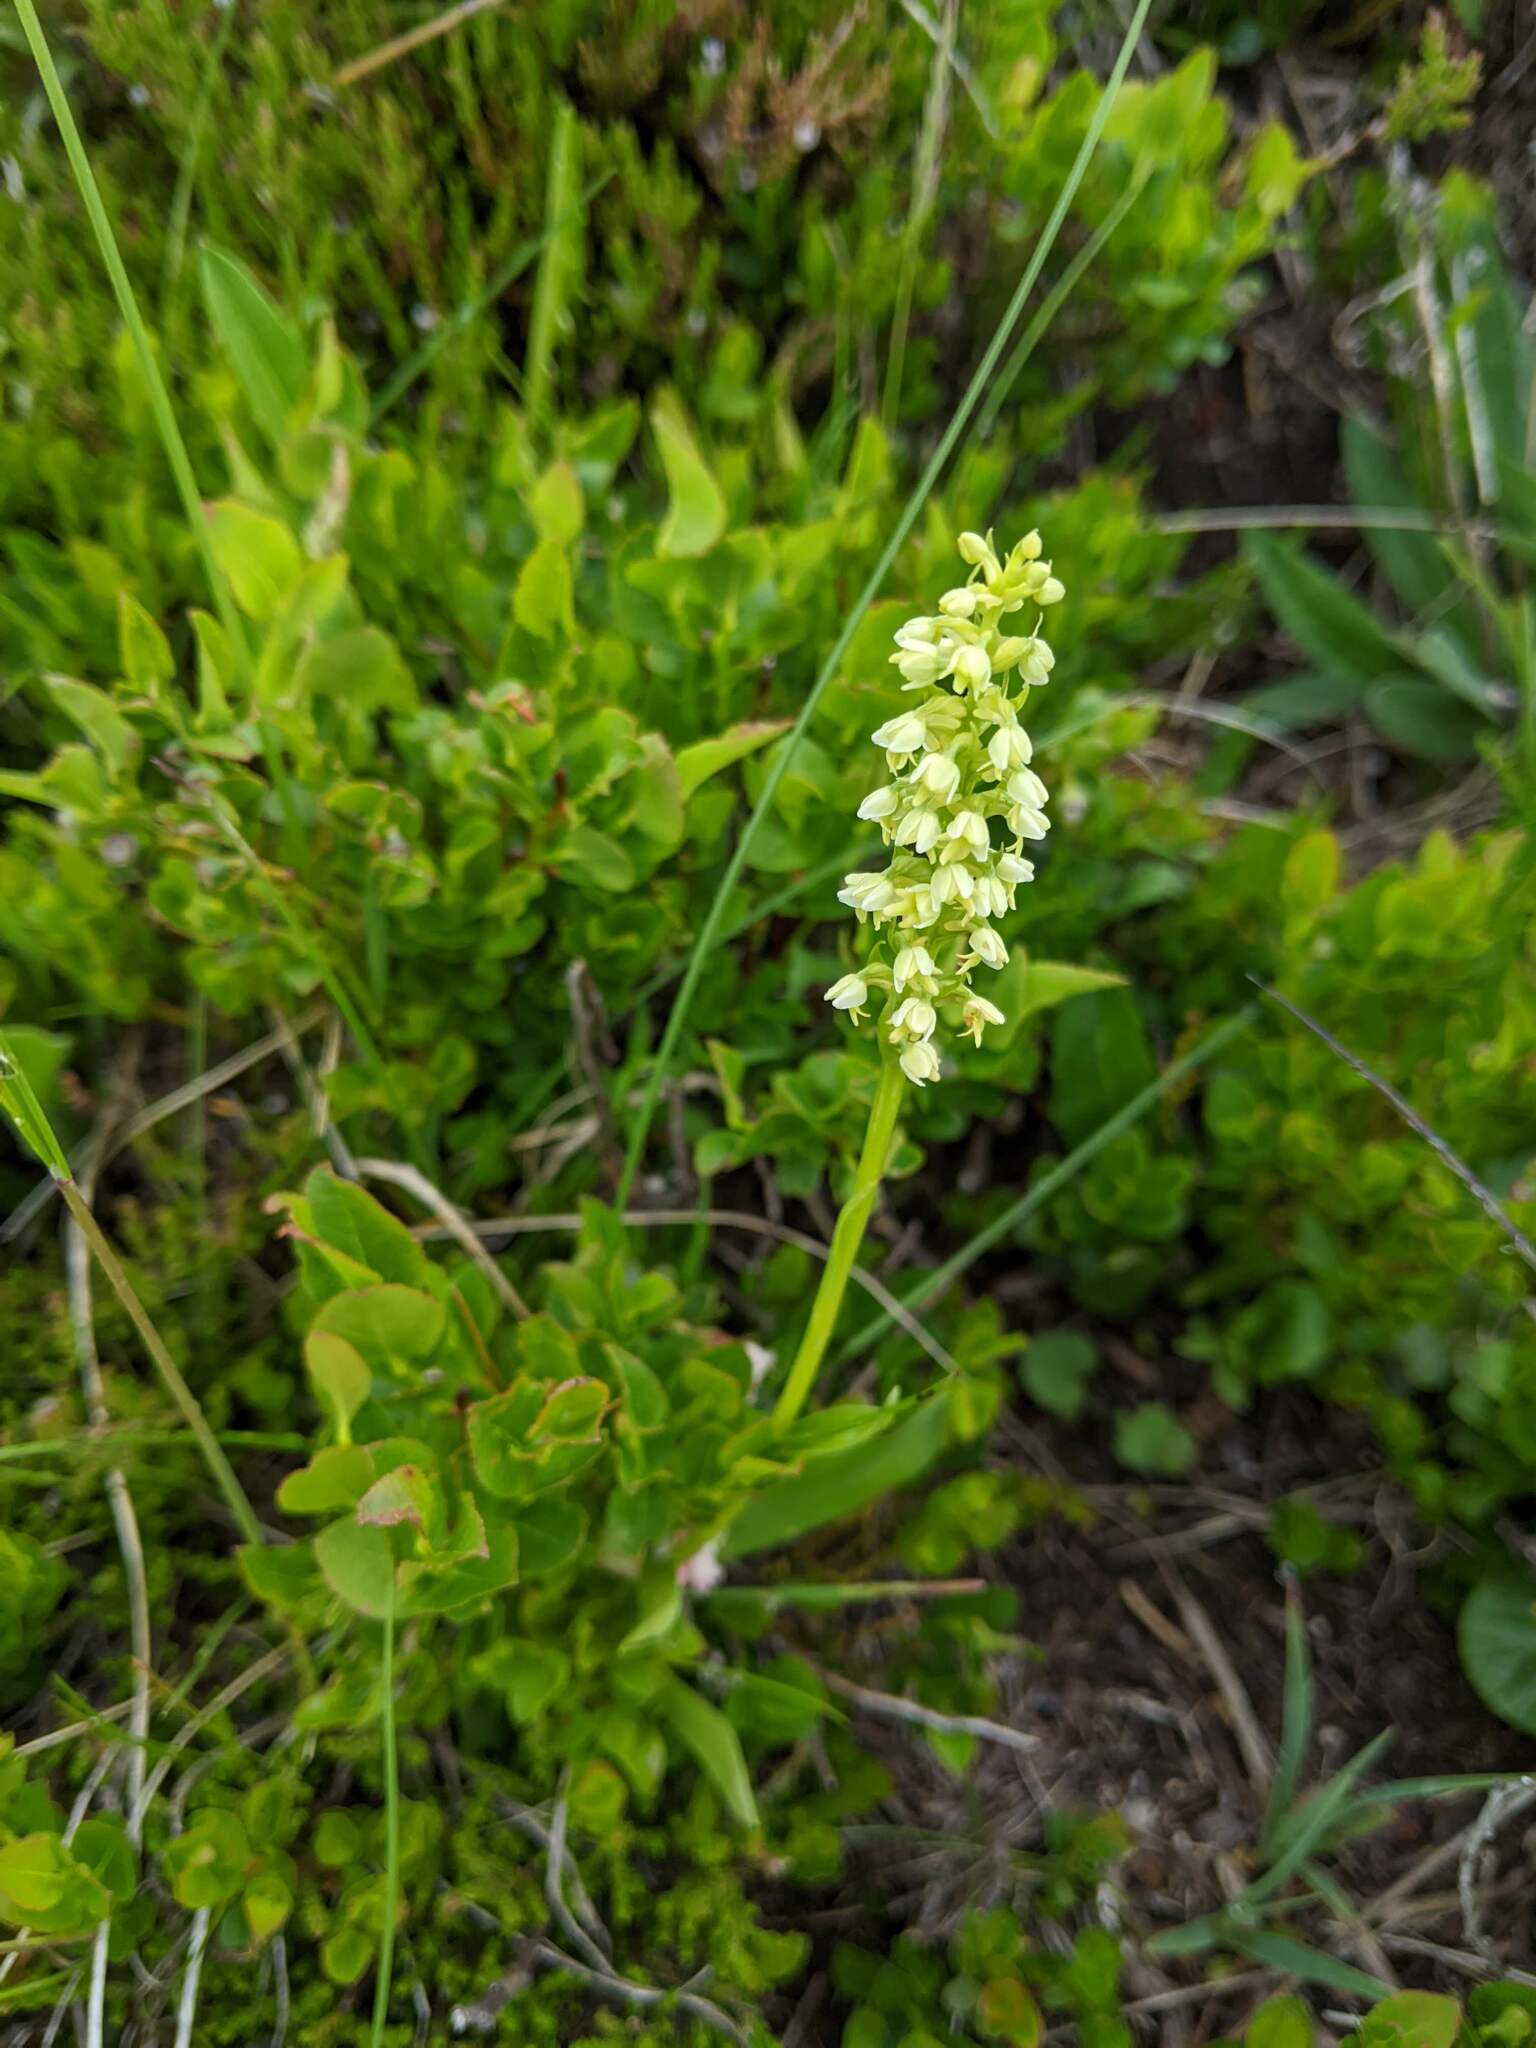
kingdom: Plantae
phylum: Tracheophyta
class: Liliopsida
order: Asparagales
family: Orchidaceae
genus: Pseudorchis
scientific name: Pseudorchis albida
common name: Small-white orchid
